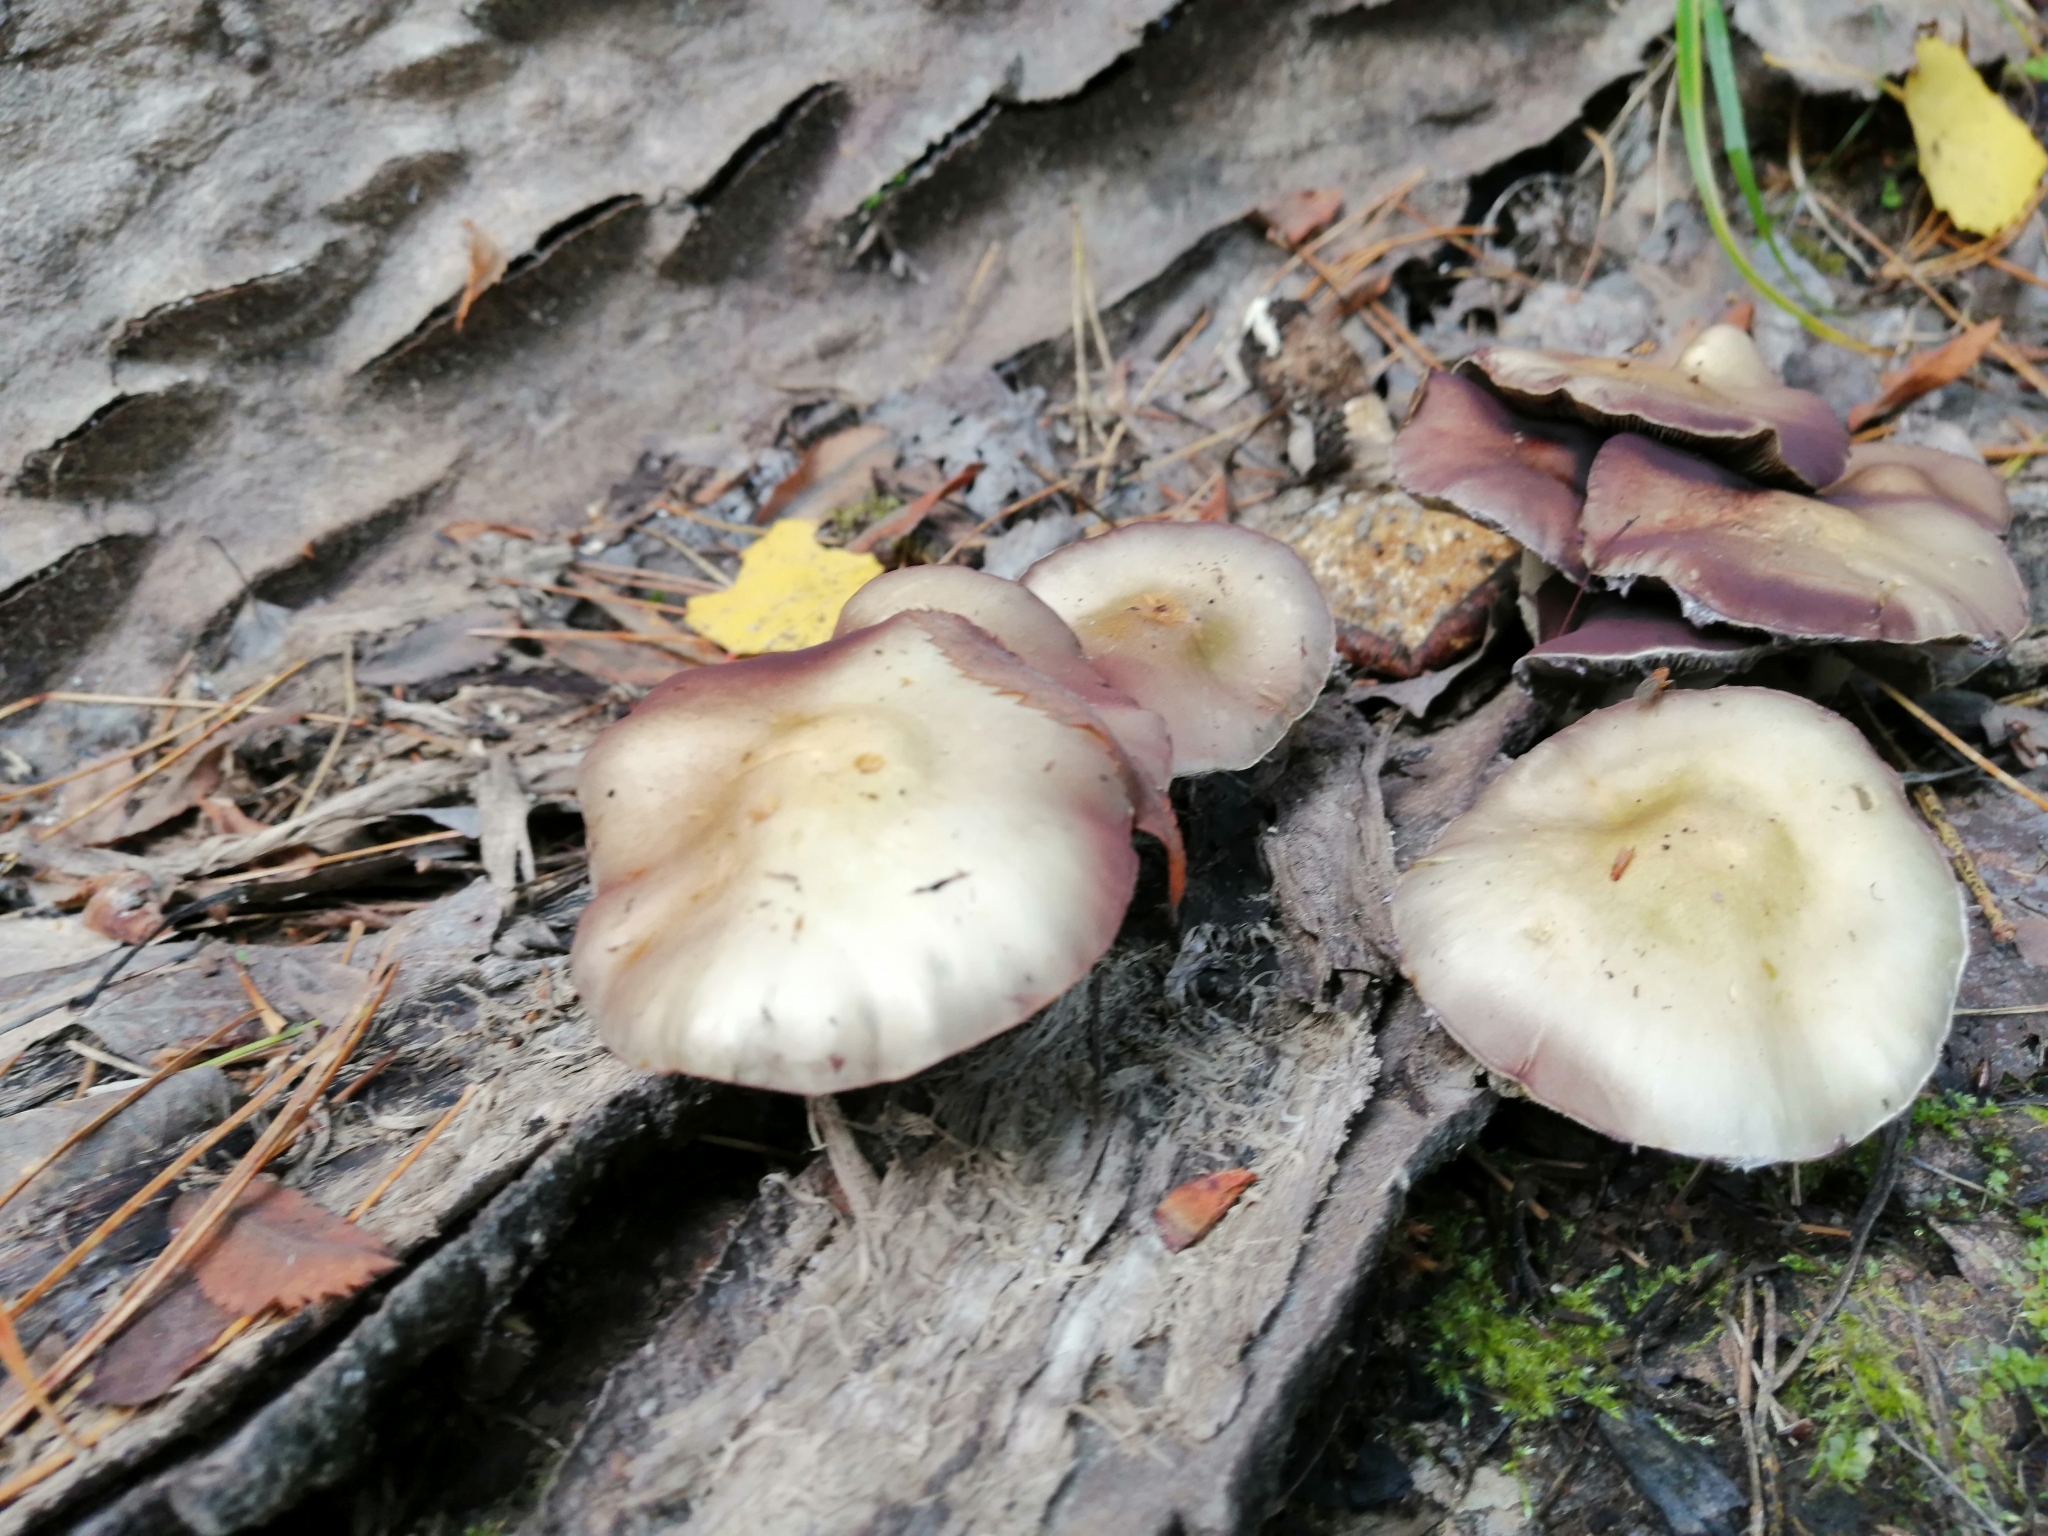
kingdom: Fungi
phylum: Basidiomycota
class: Agaricomycetes
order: Agaricales
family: Strophariaceae
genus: Stropharia
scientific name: Stropharia hornemannii
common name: Conifer roundhead
